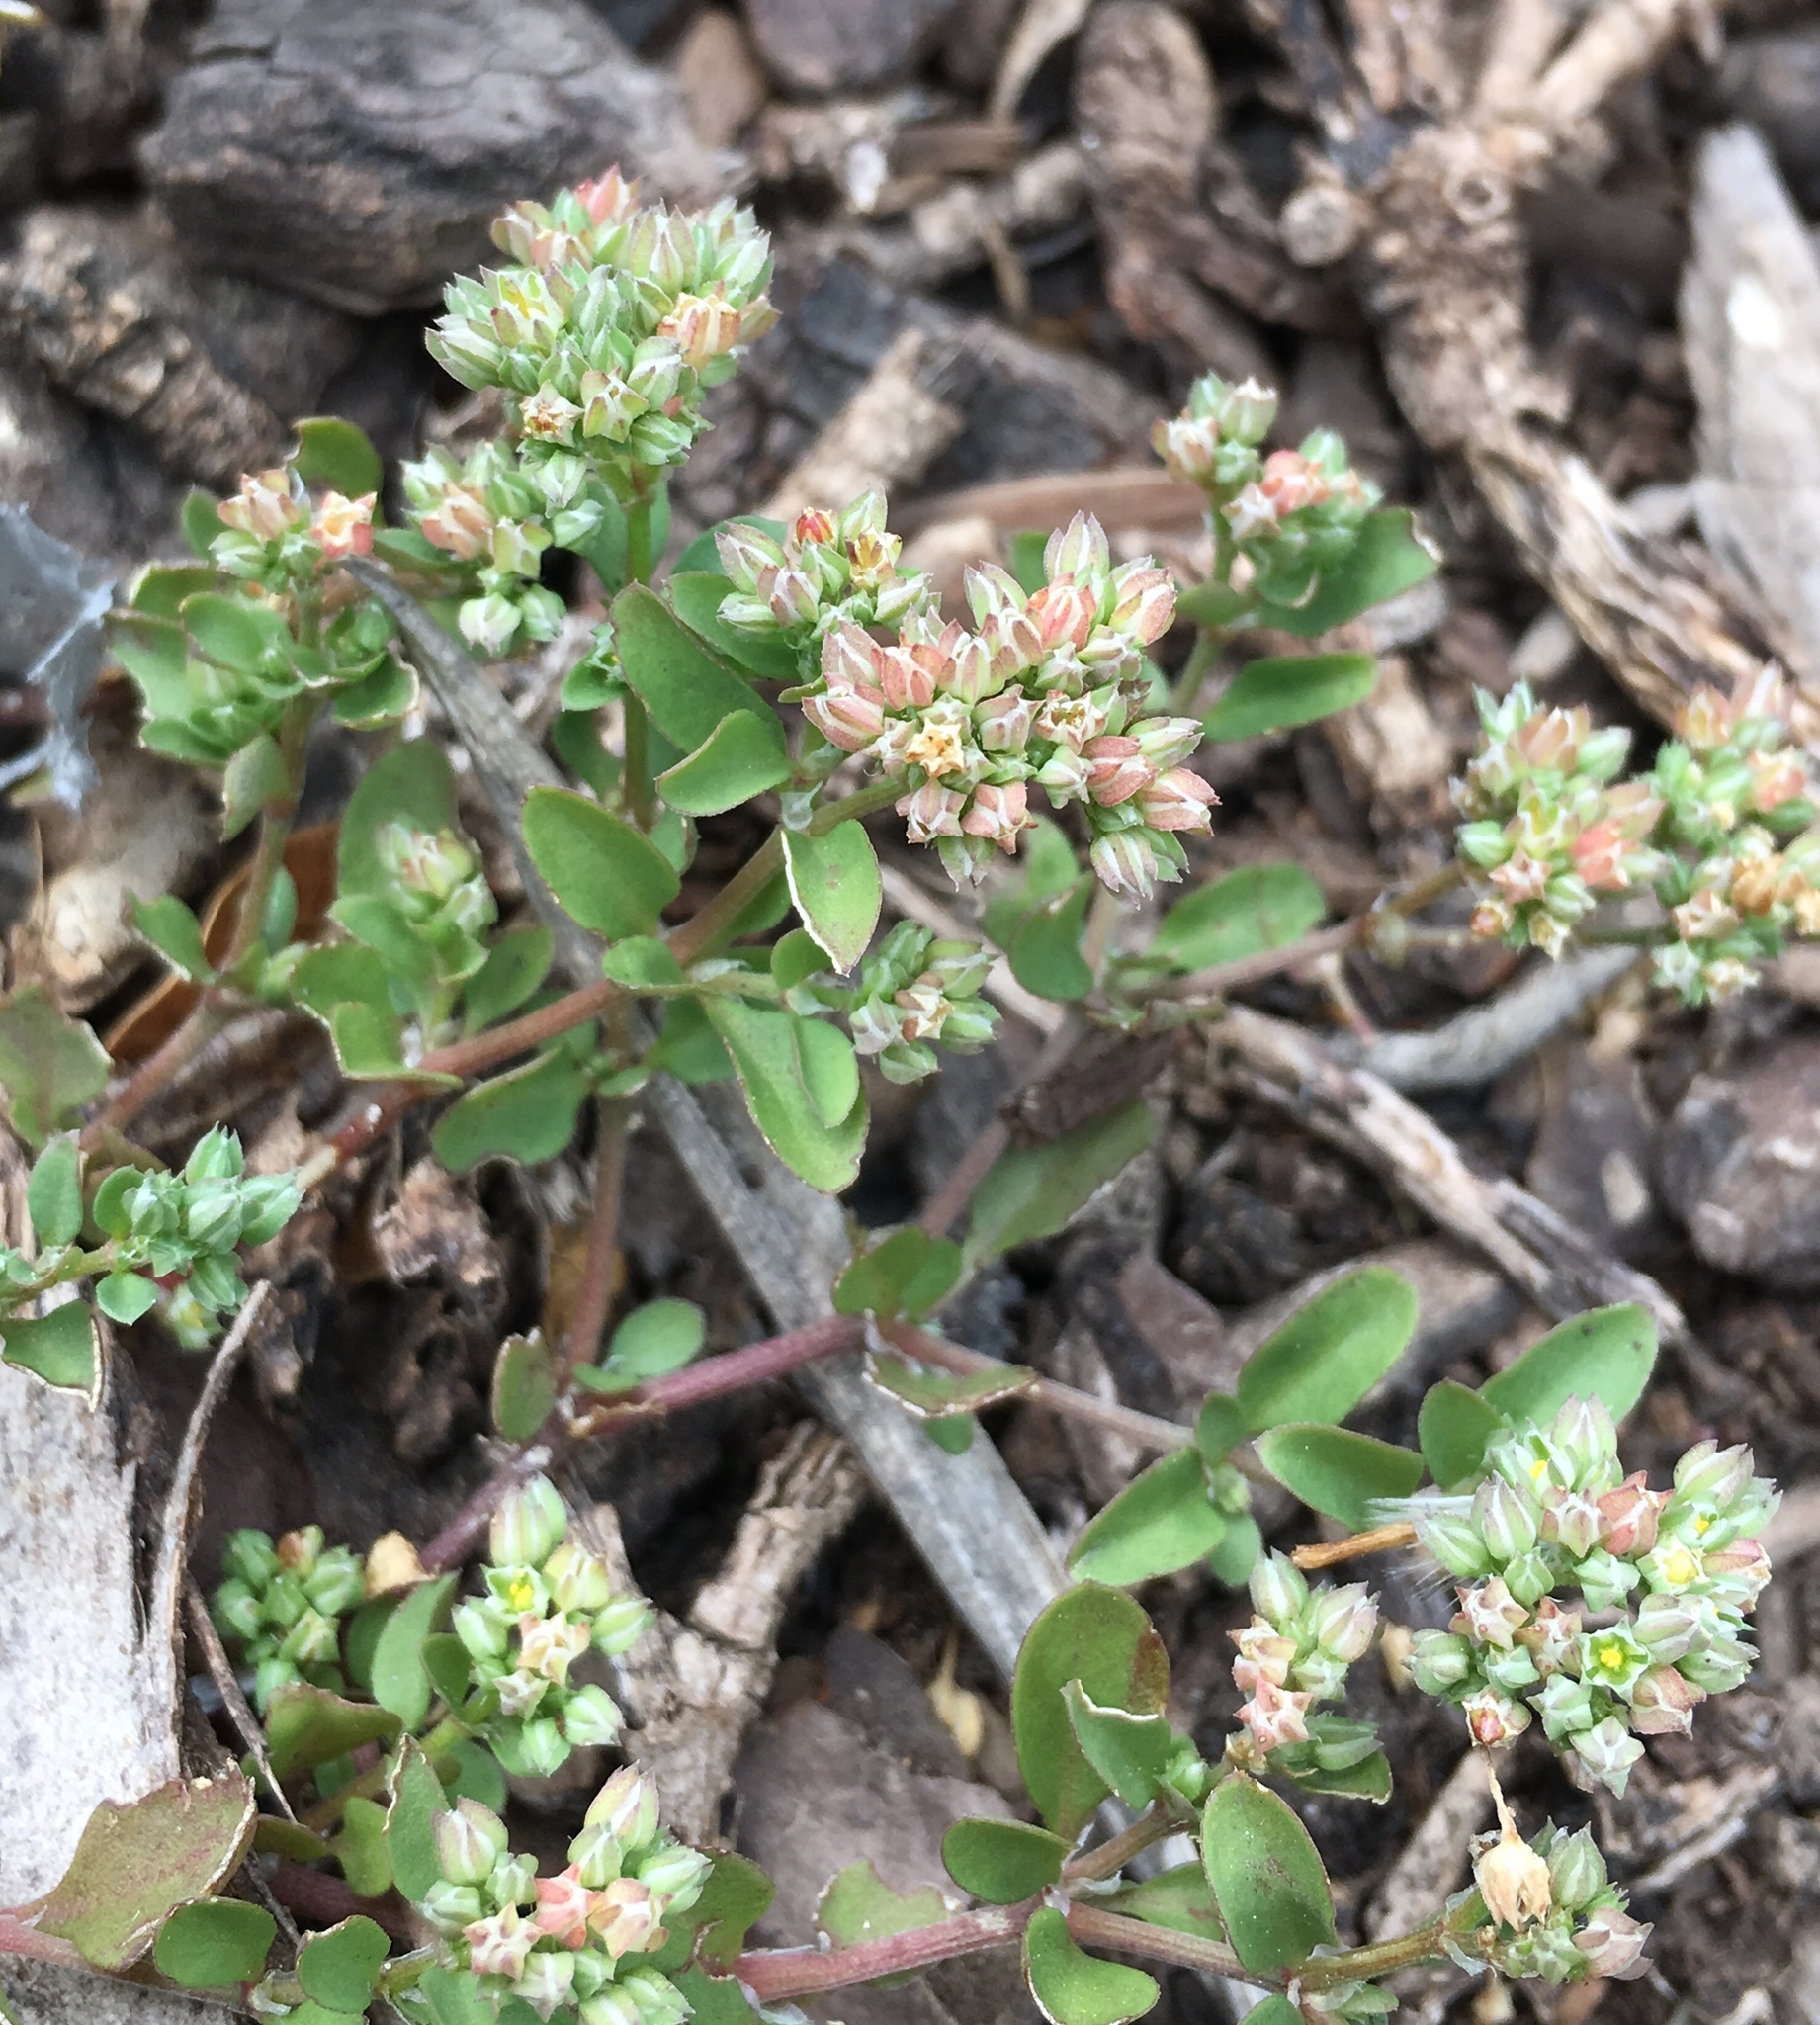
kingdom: Plantae
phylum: Tracheophyta
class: Magnoliopsida
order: Caryophyllales
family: Caryophyllaceae
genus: Polycarpon
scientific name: Polycarpon tetraphyllum
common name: Four-leaved all-seed
